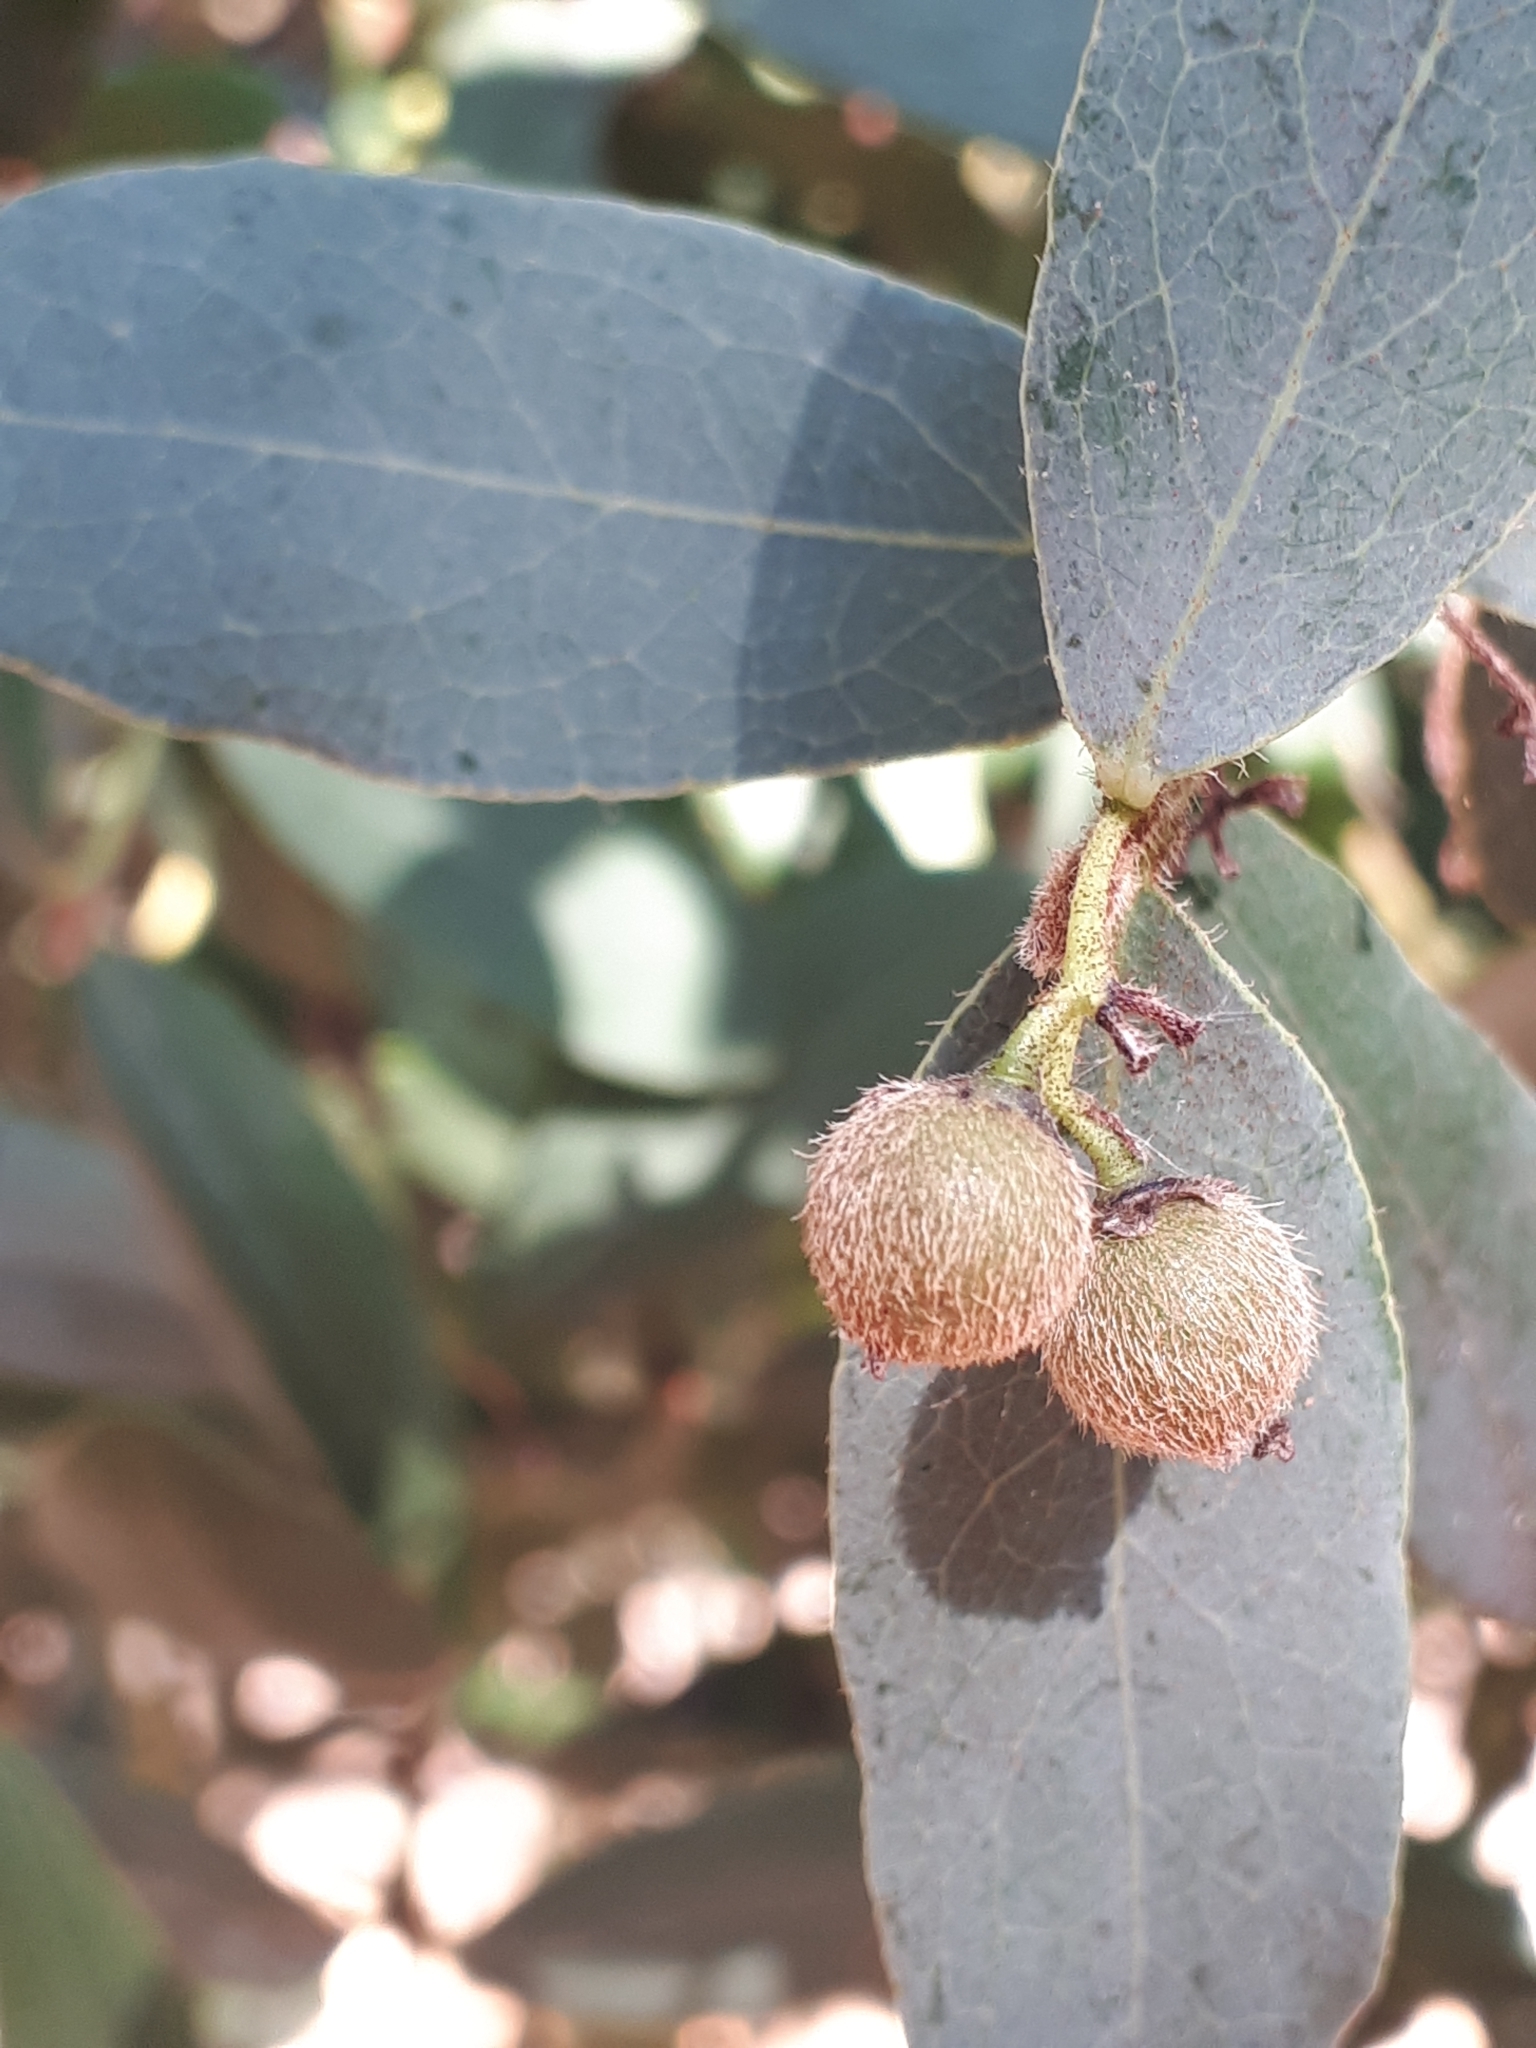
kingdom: Plantae
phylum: Tracheophyta
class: Magnoliopsida
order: Ericales
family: Ebenaceae
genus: Euclea
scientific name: Euclea crispa
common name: Blue guarri
